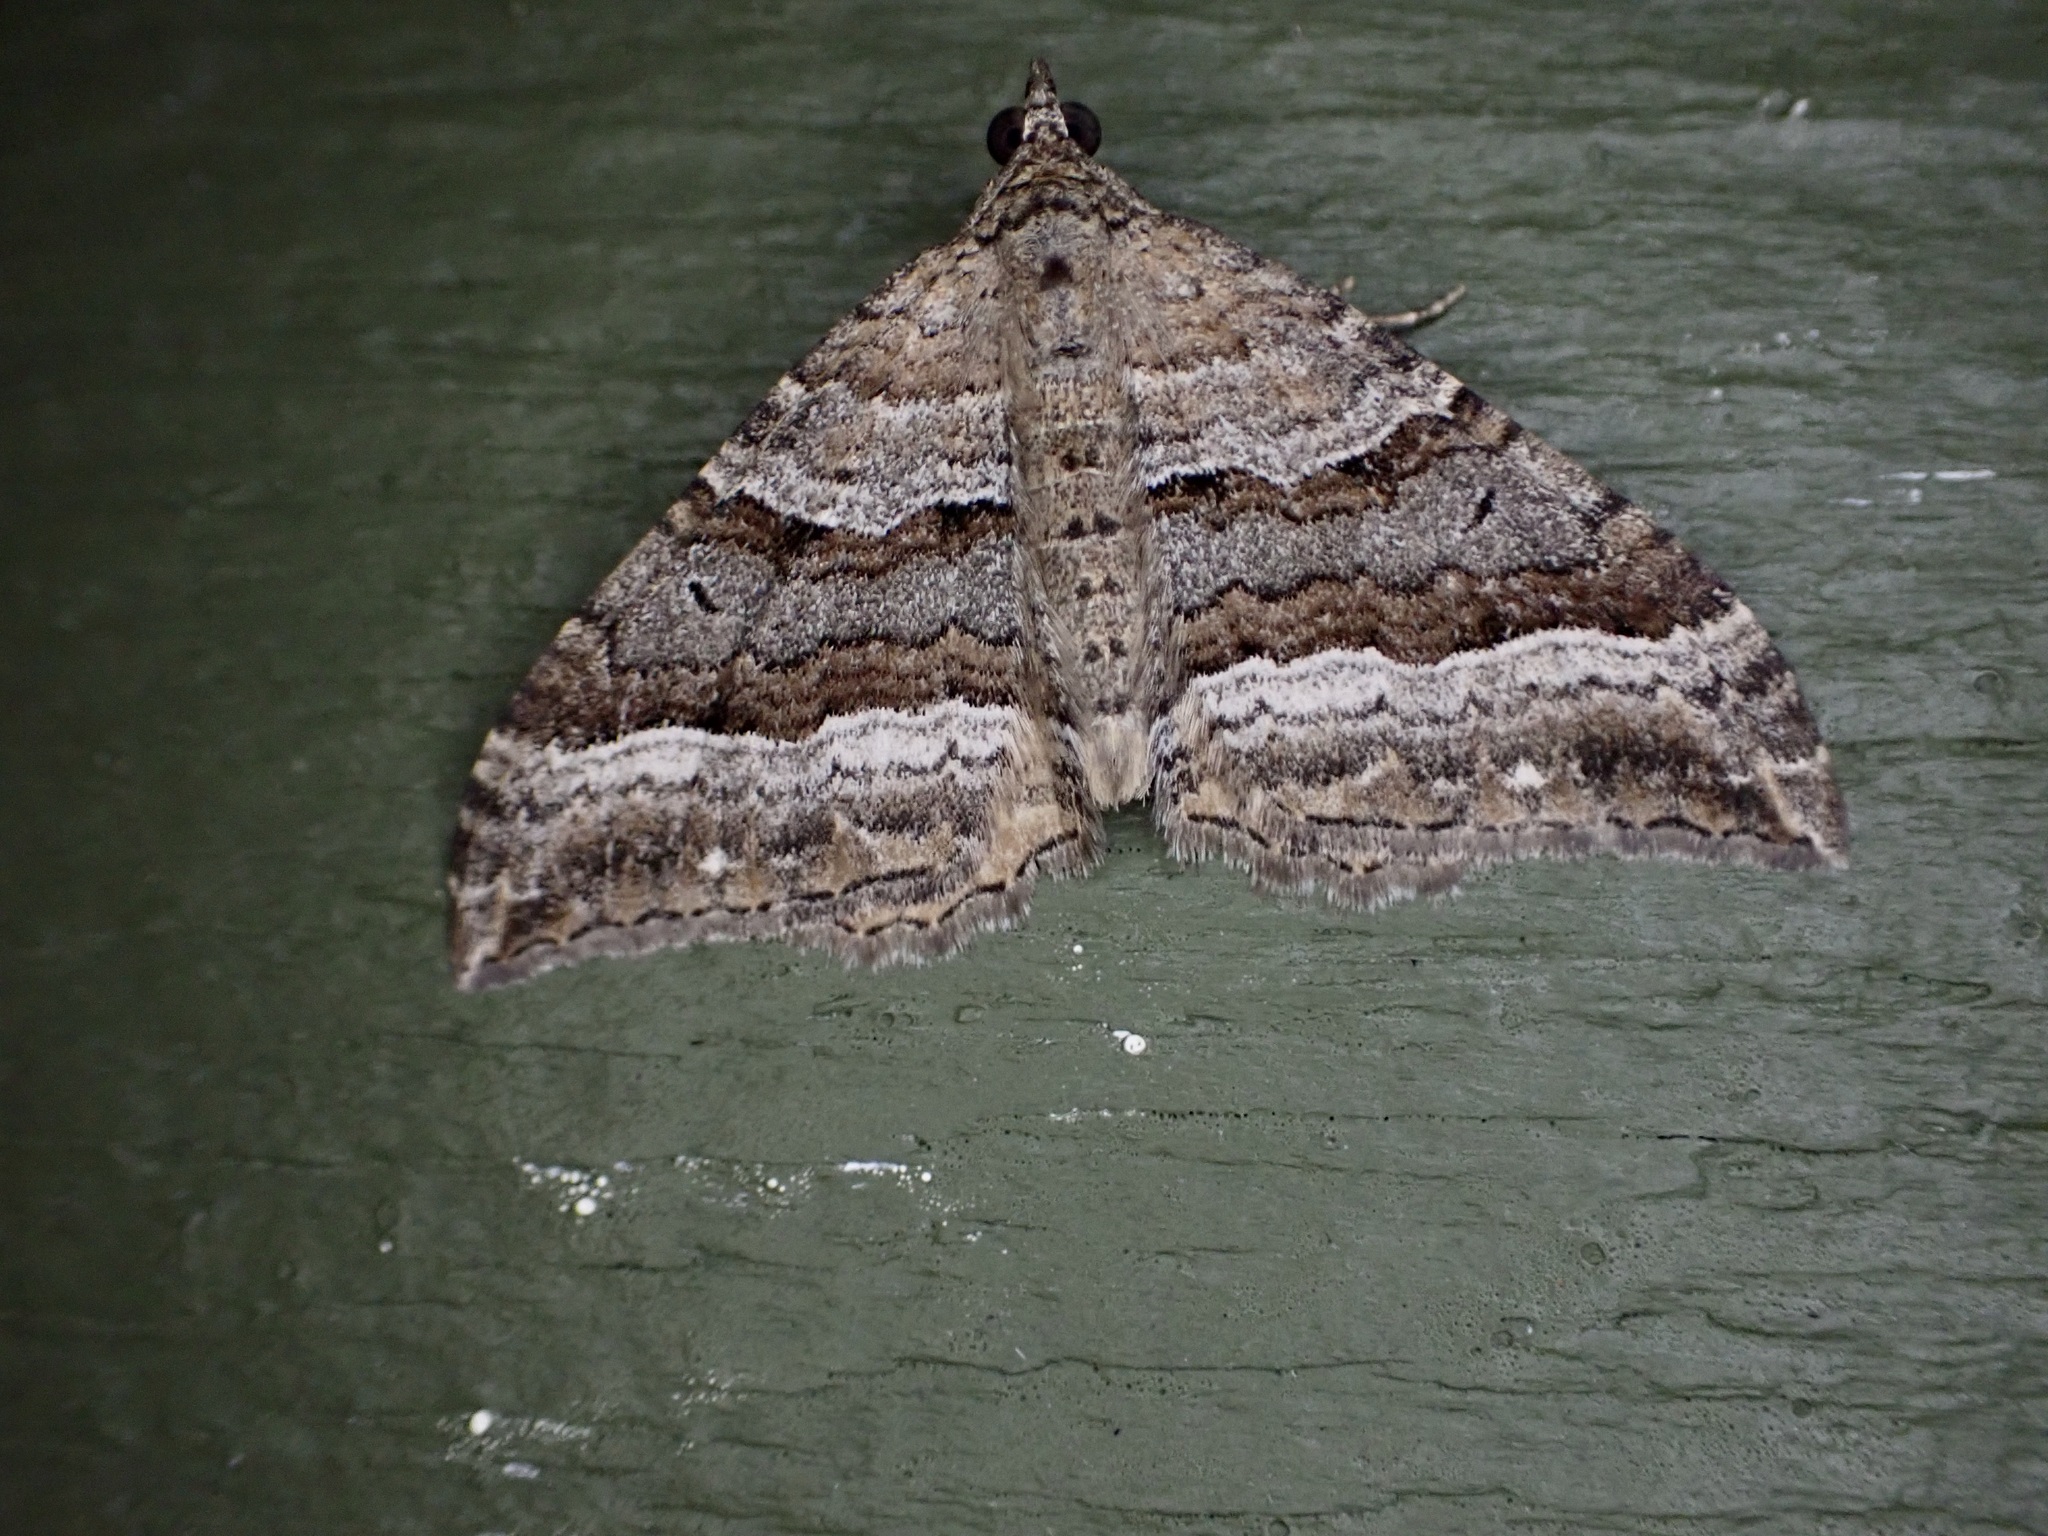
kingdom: Animalia
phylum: Arthropoda
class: Insecta
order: Lepidoptera
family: Geometridae
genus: Hydriomena
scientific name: Hydriomena deltoidata
